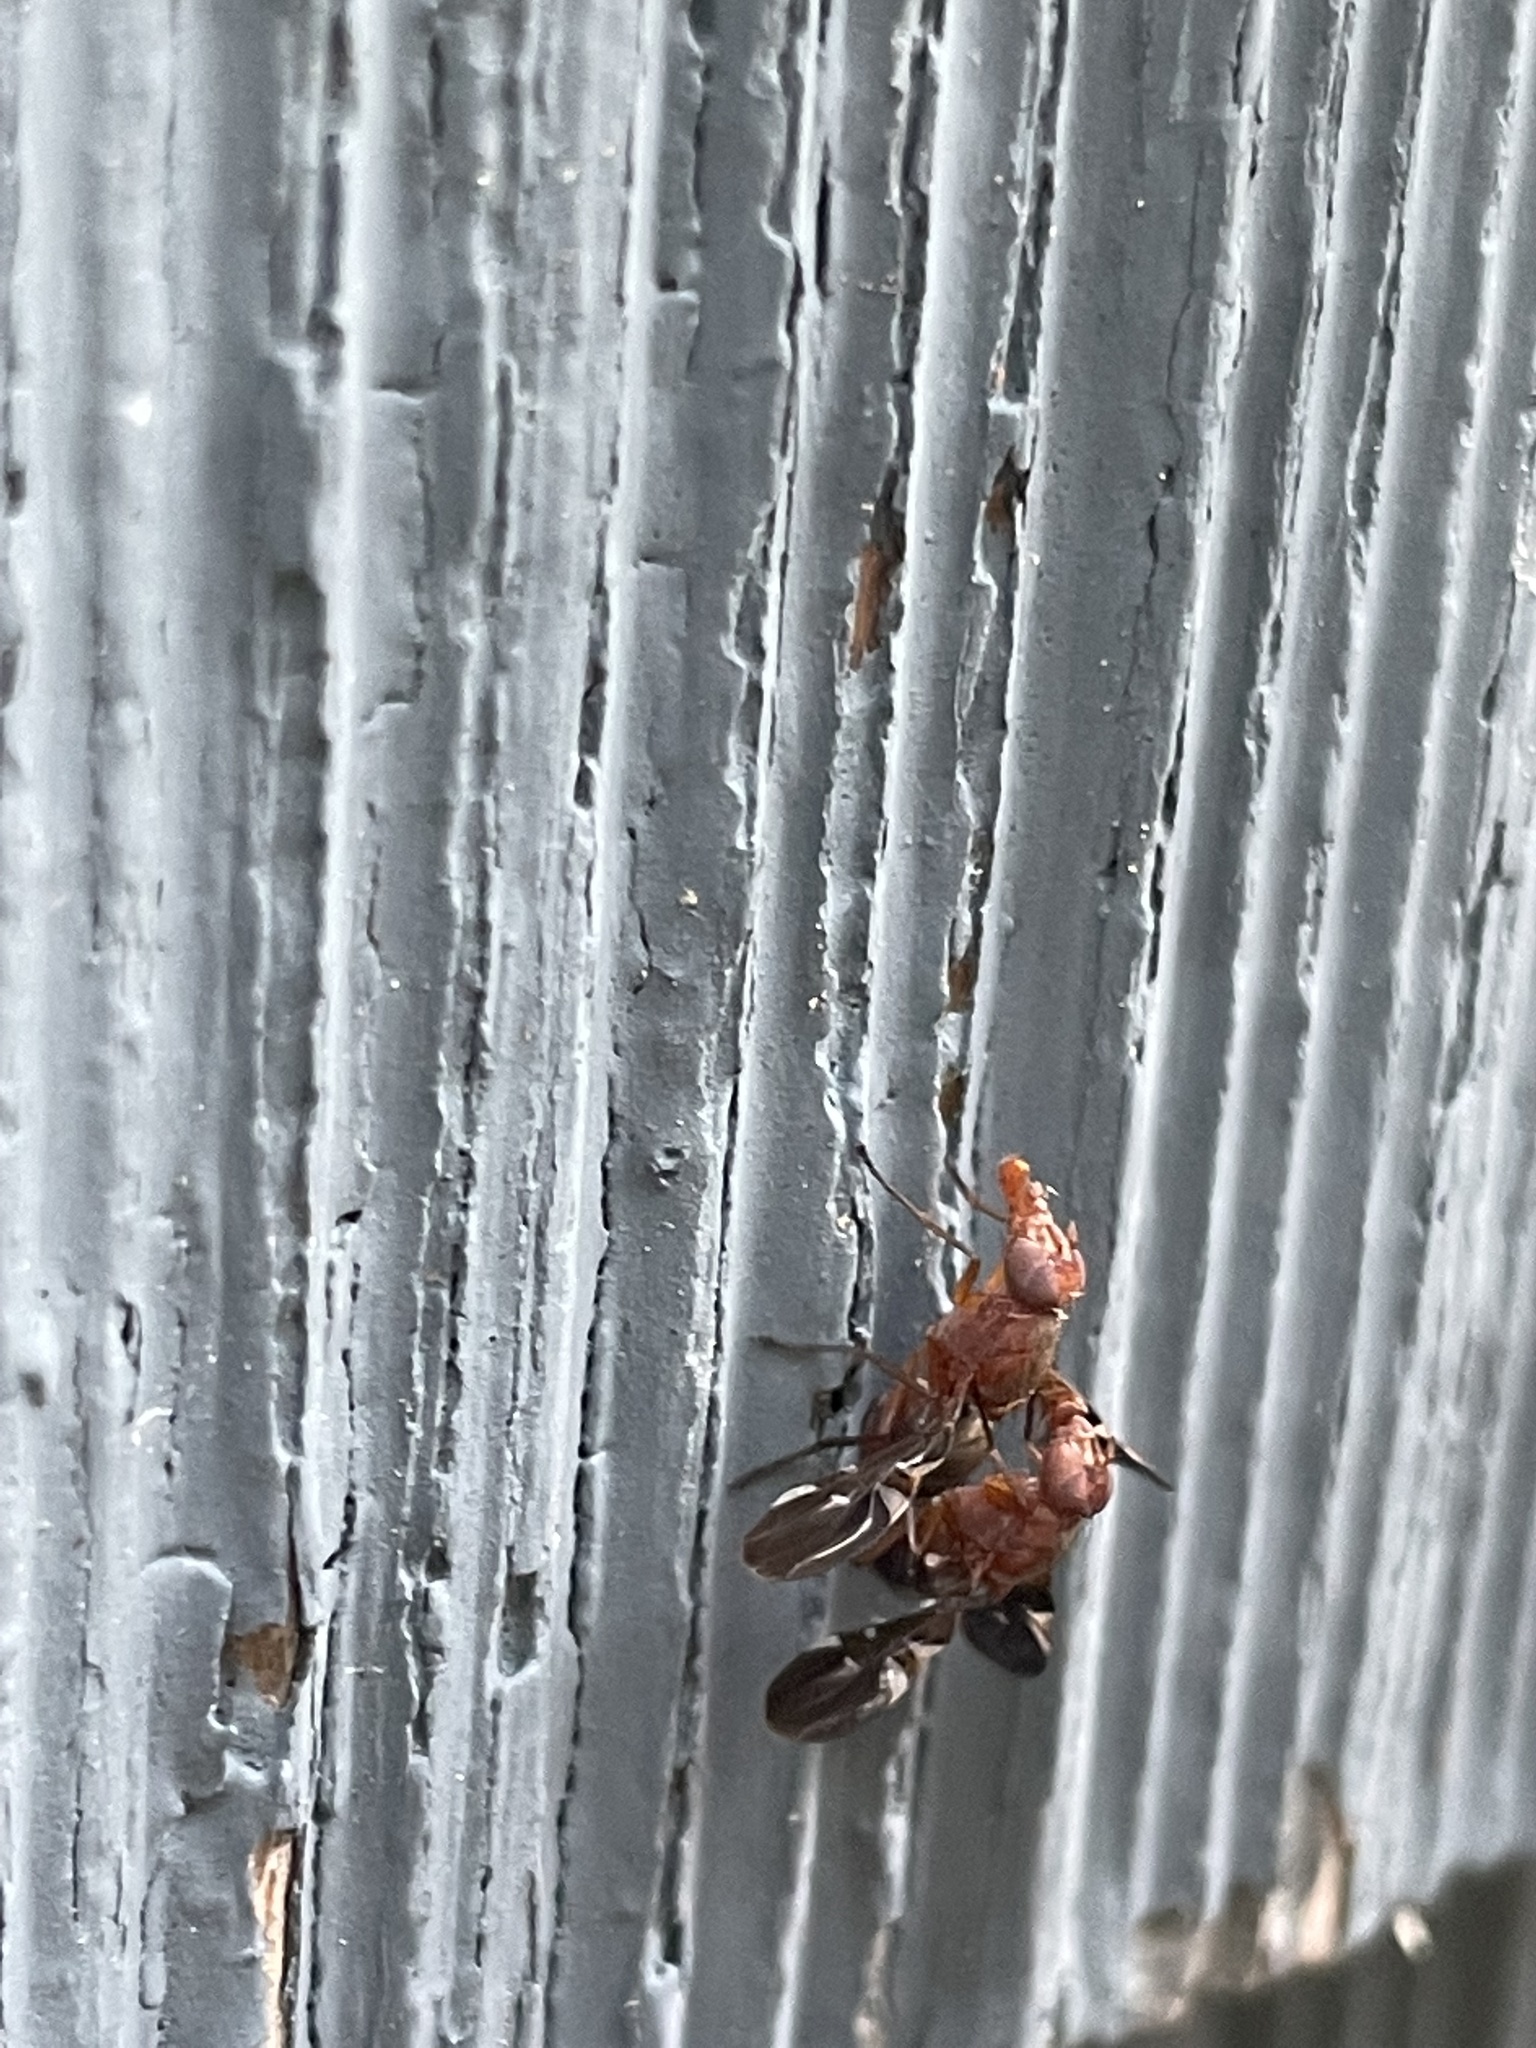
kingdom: Animalia
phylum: Arthropoda
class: Insecta
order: Diptera
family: Ulidiidae
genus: Delphinia
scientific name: Delphinia picta
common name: Common picture-winged fly
